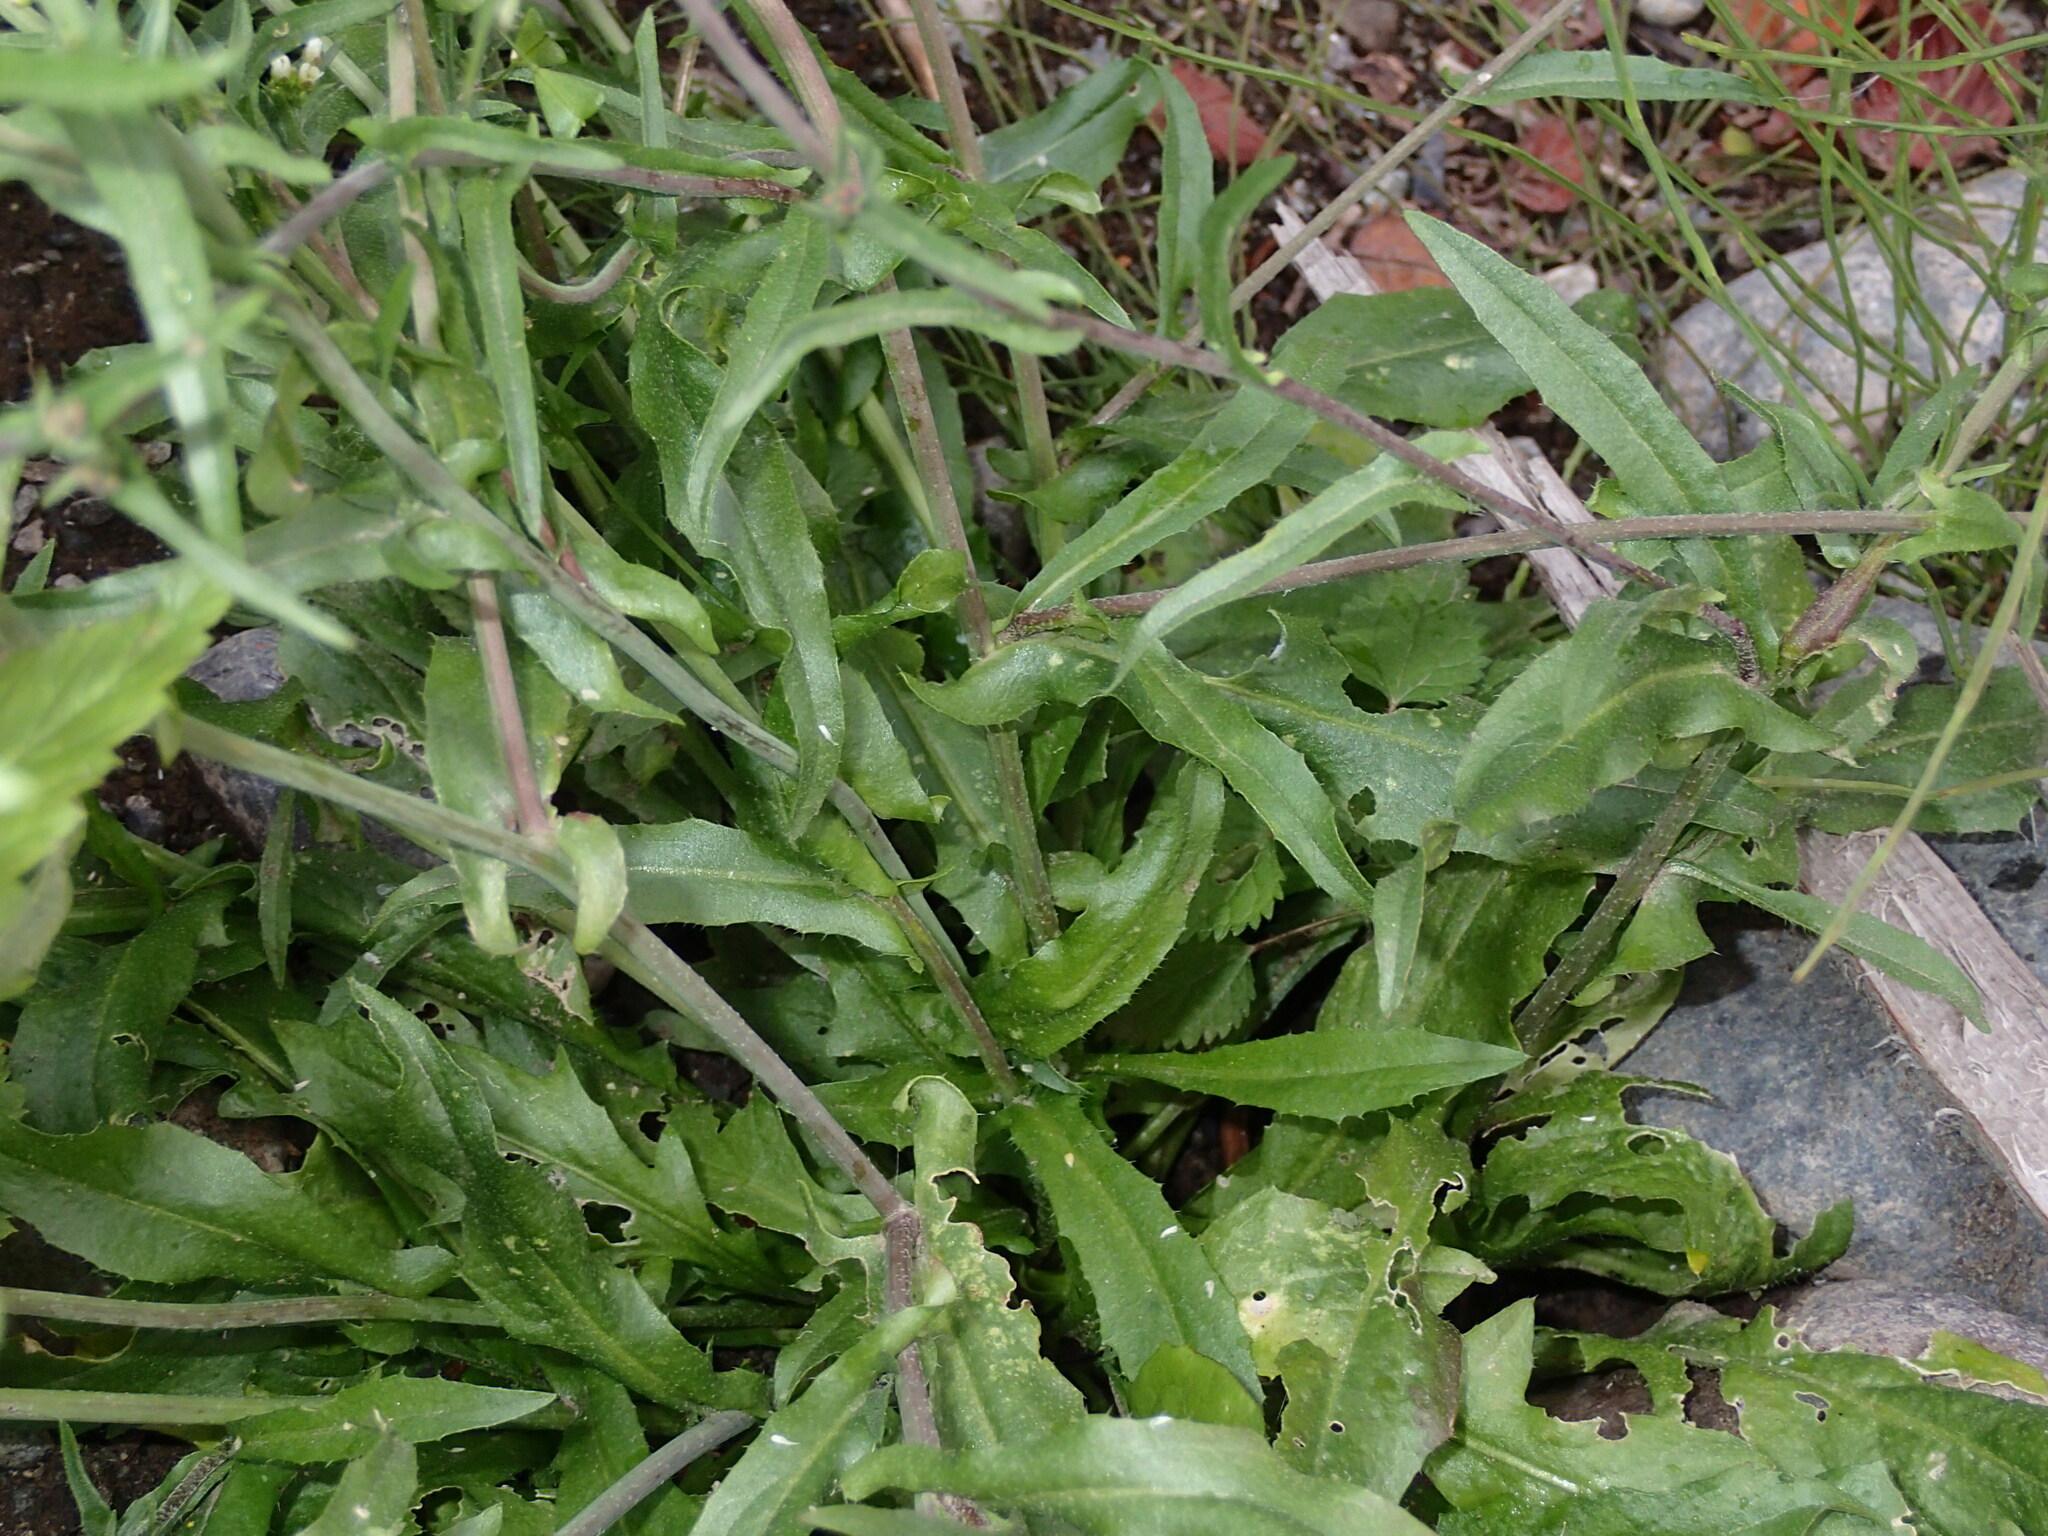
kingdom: Plantae
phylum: Tracheophyta
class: Magnoliopsida
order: Brassicales
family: Brassicaceae
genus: Capsella
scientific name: Capsella bursa-pastoris
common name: Shepherd's purse
